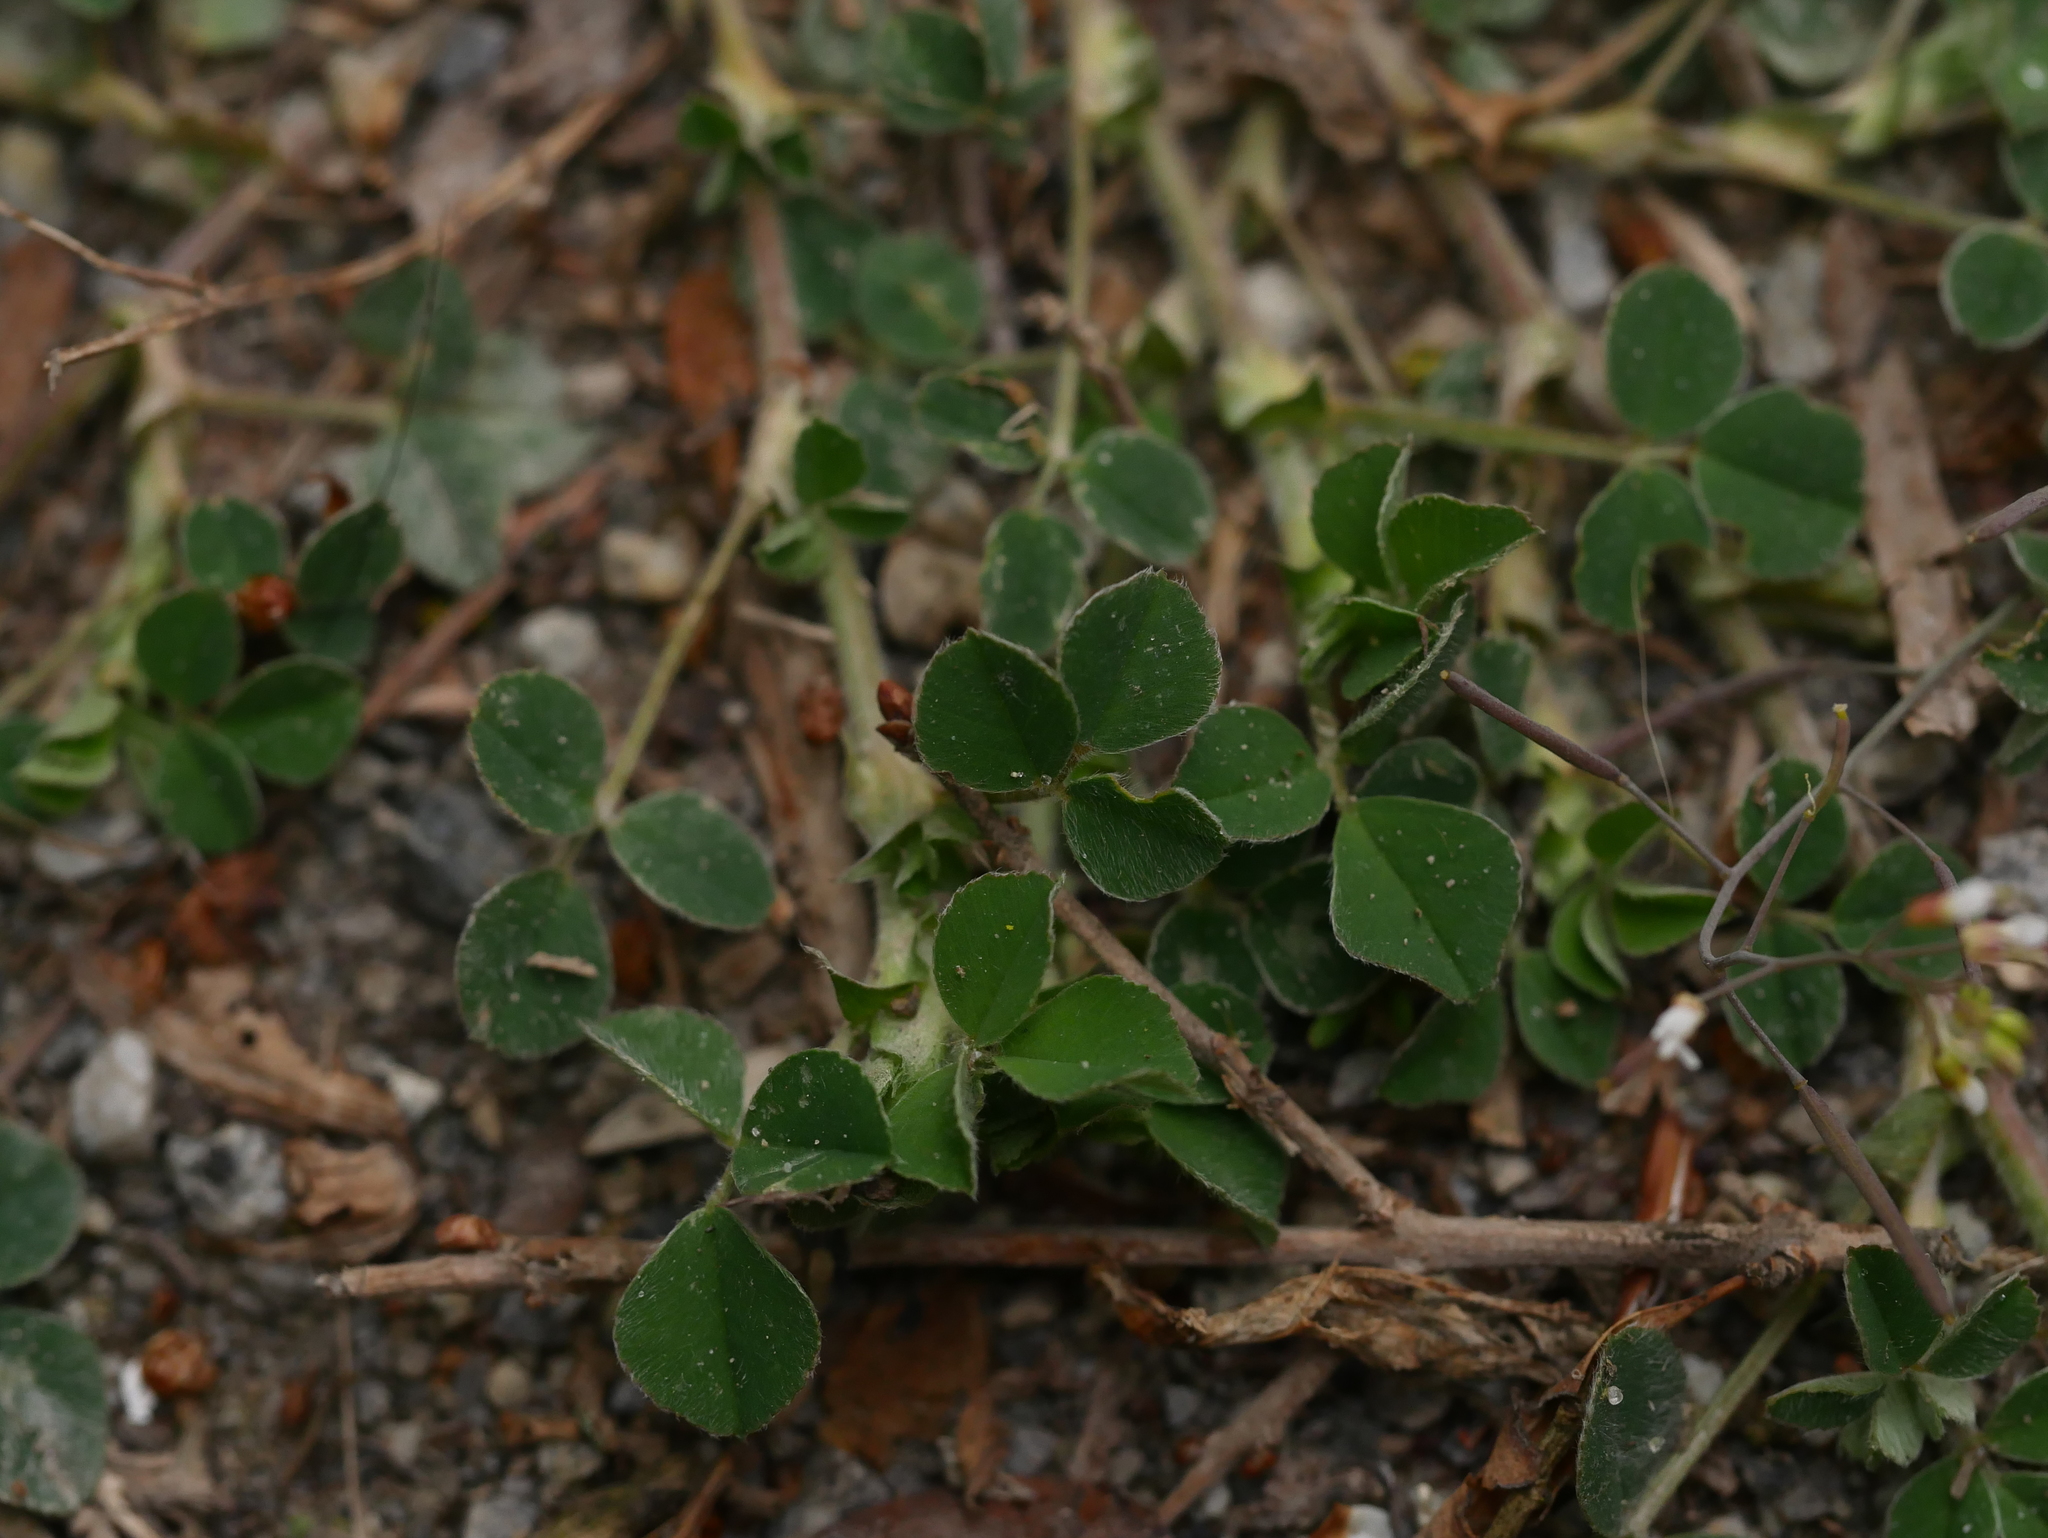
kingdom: Plantae
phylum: Tracheophyta
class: Magnoliopsida
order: Fabales
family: Fabaceae
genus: Medicago
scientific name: Medicago lupulina
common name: Black medick
